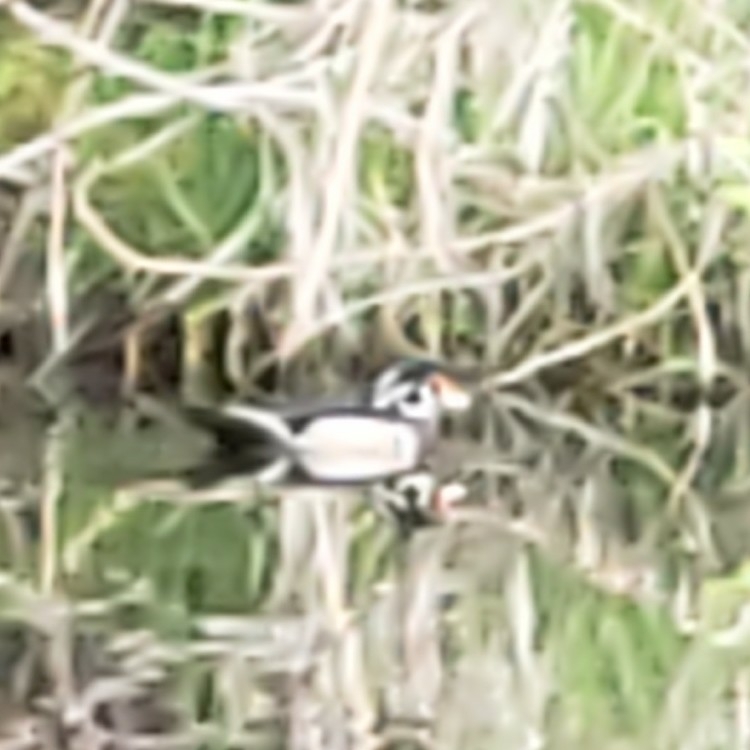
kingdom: Animalia
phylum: Chordata
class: Aves
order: Anseriformes
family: Anatidae
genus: Aix
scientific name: Aix sponsa
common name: Wood duck
